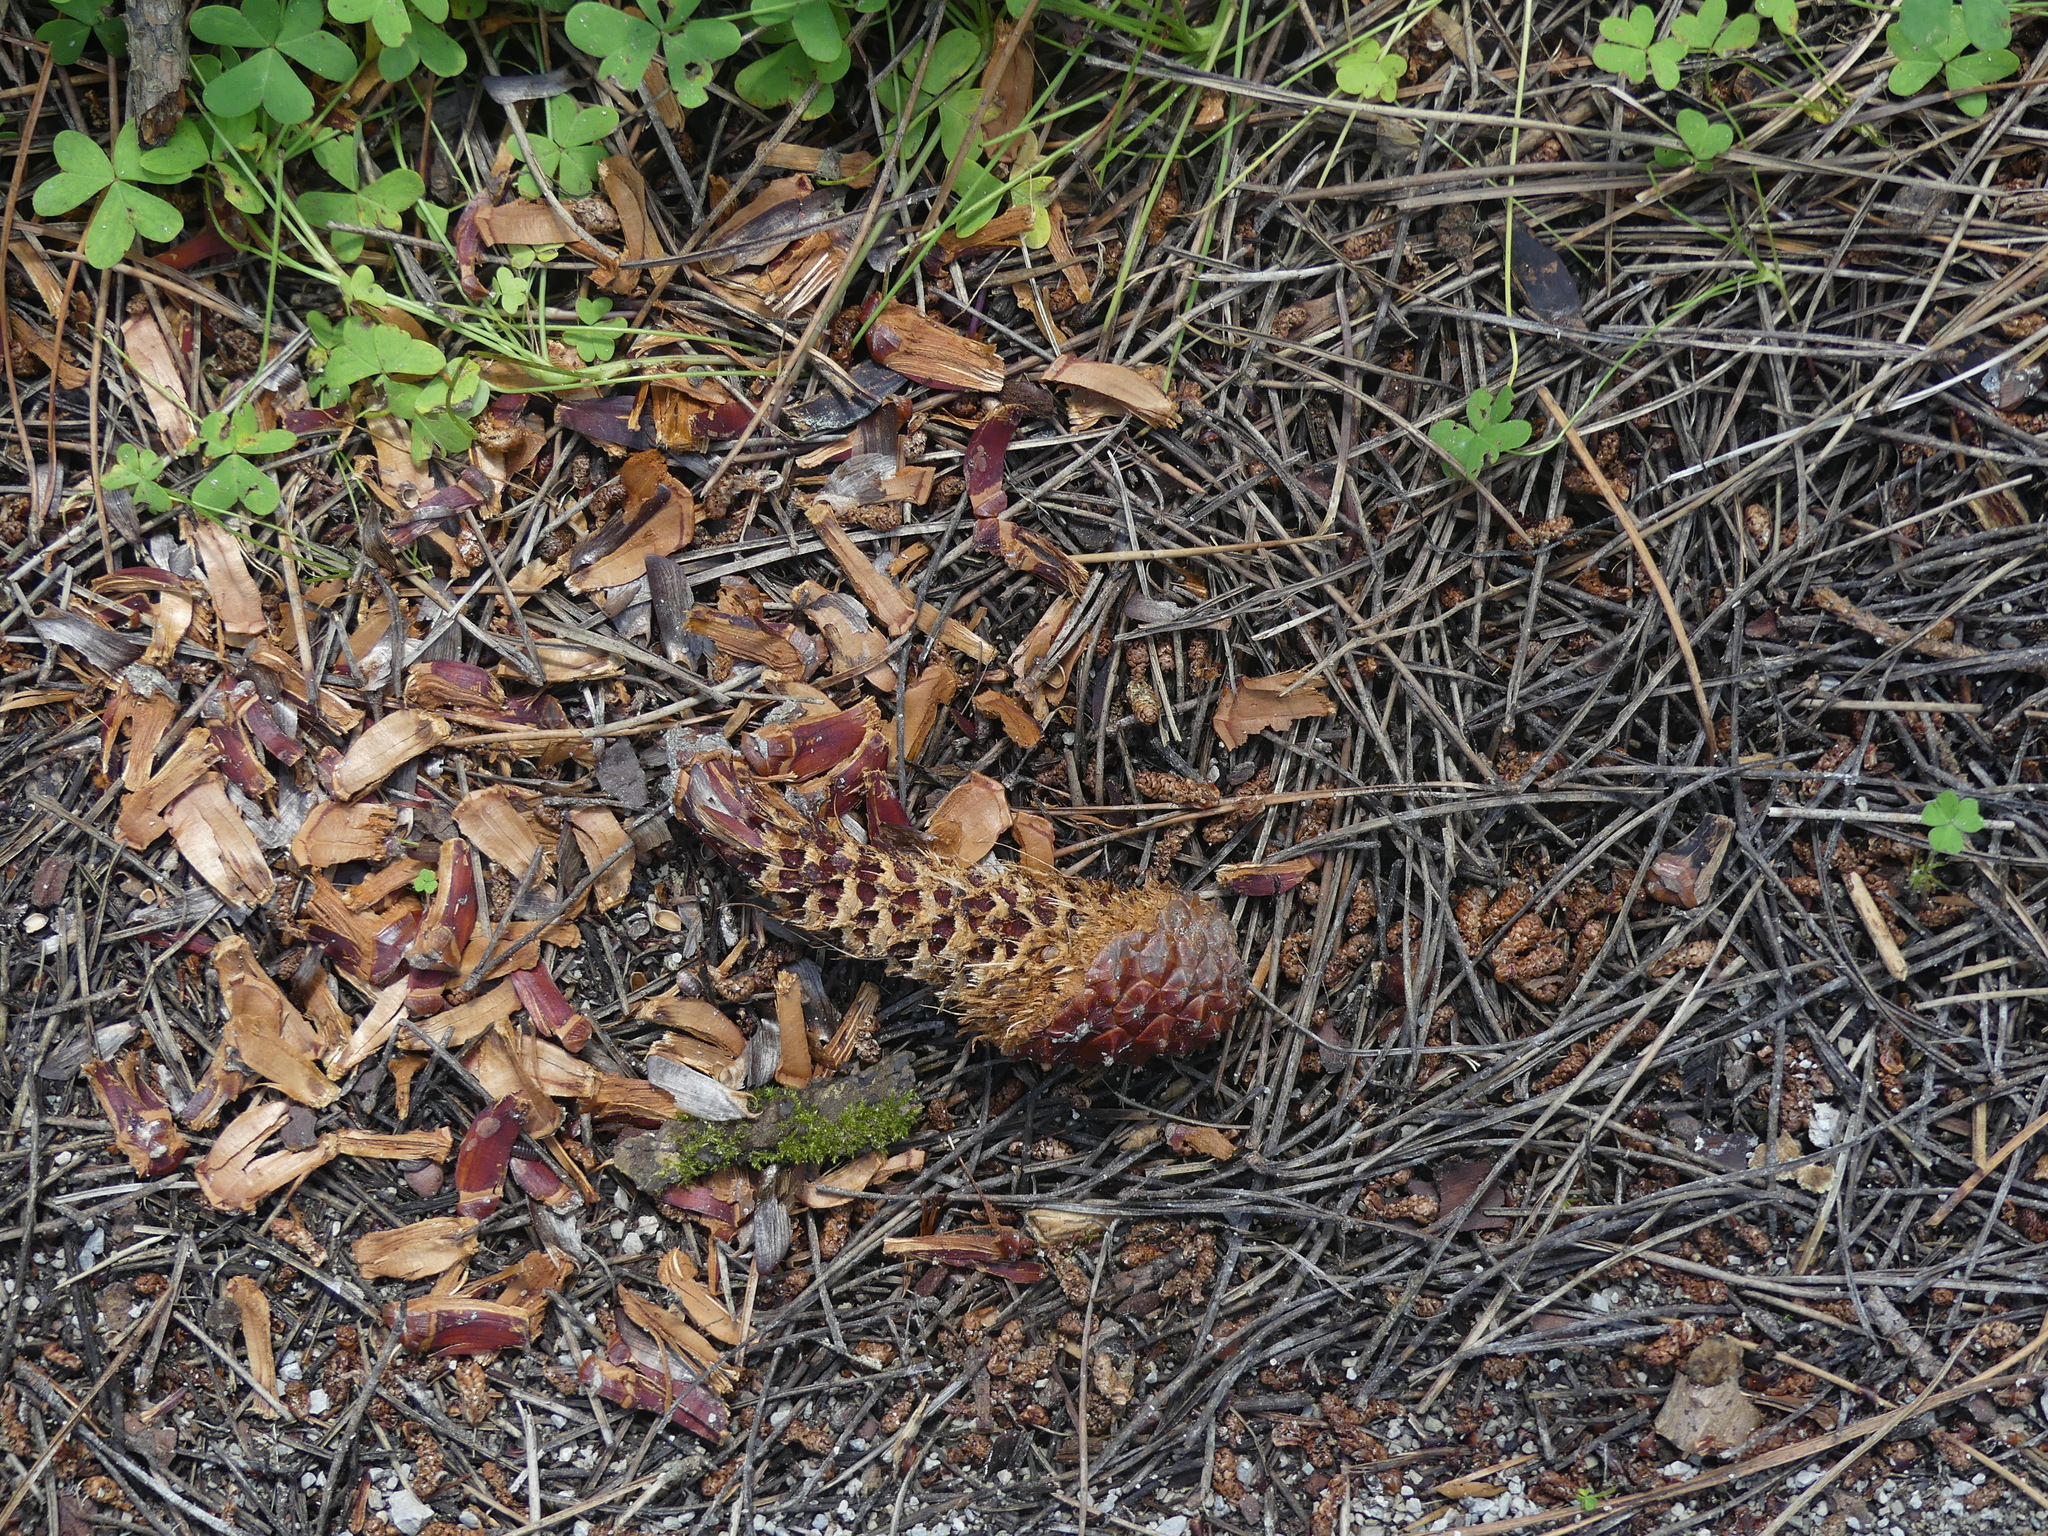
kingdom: Animalia
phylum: Chordata
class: Mammalia
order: Rodentia
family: Sciuridae
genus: Sciurus
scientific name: Sciurus vulgaris
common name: Eurasian red squirrel
